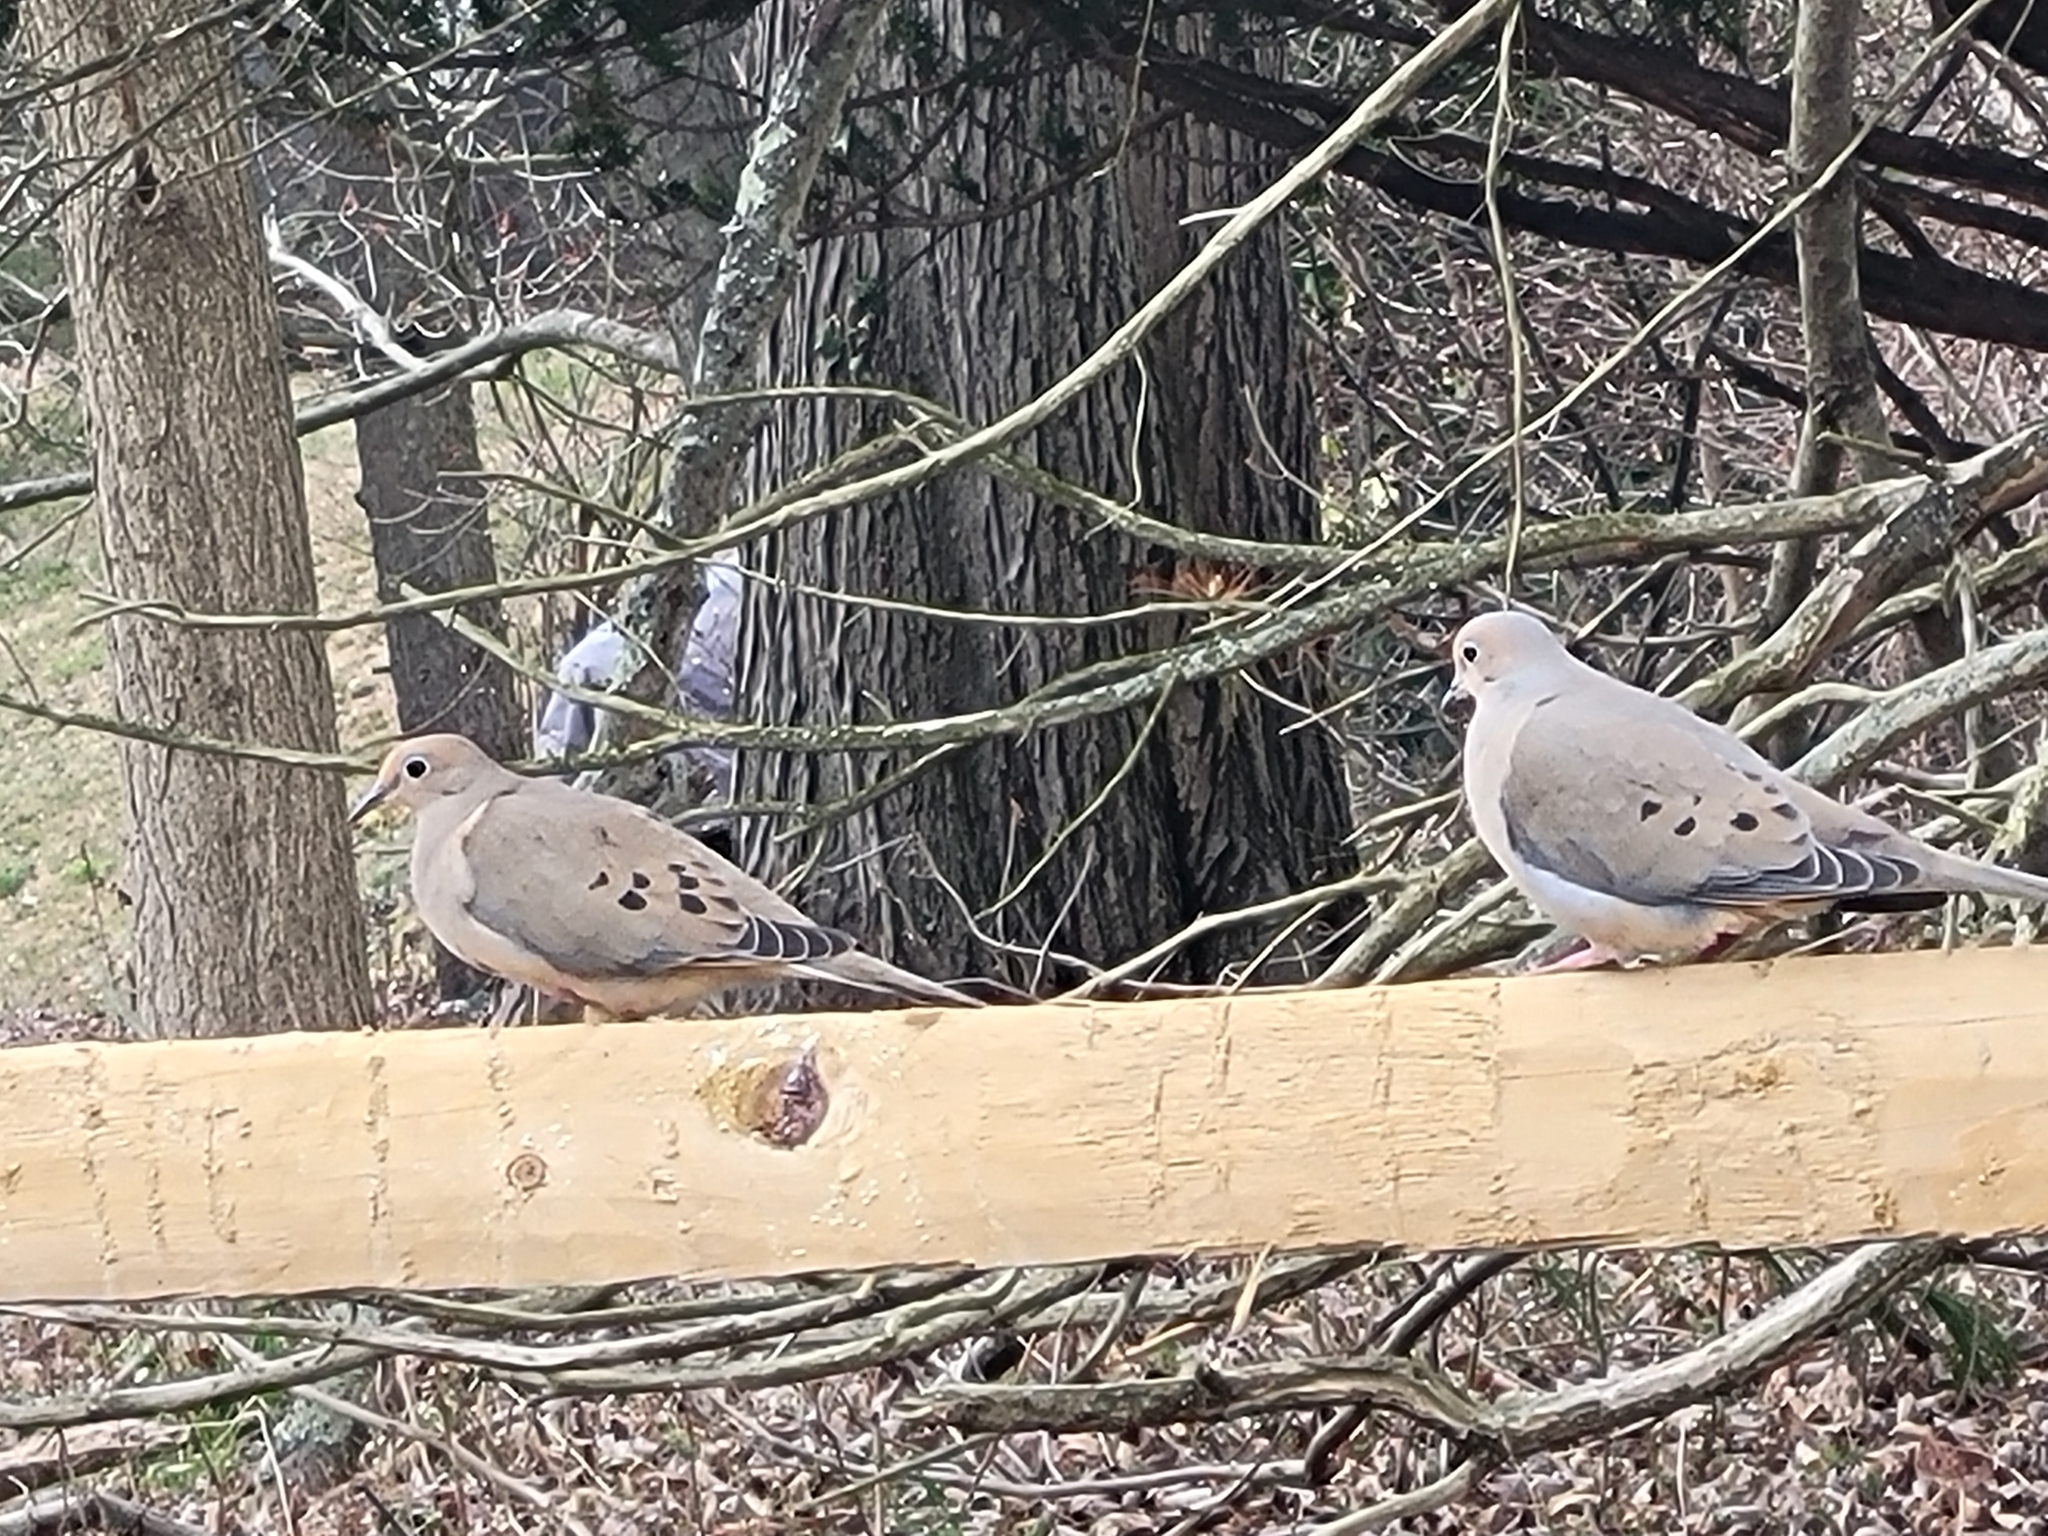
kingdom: Animalia
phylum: Chordata
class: Aves
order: Columbiformes
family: Columbidae
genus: Zenaida
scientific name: Zenaida macroura
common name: Mourning dove
